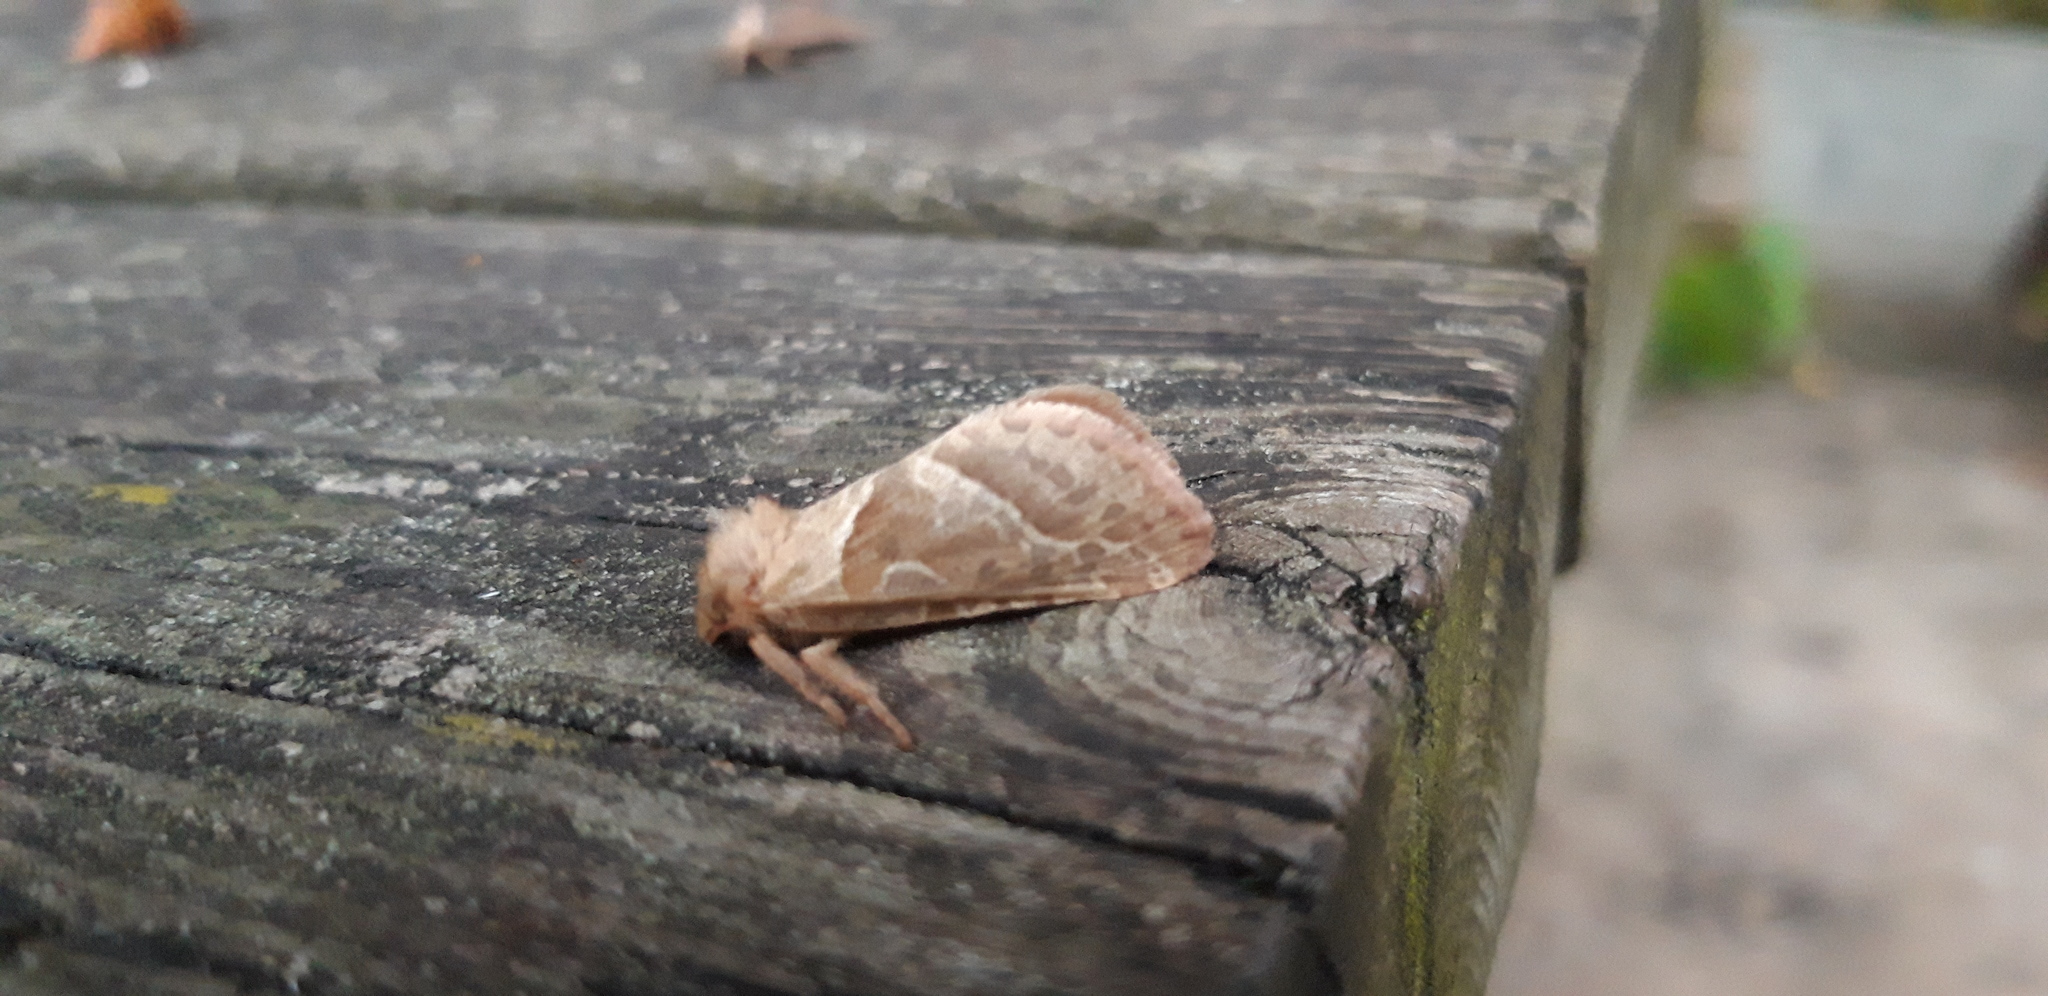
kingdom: Animalia
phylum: Arthropoda
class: Insecta
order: Lepidoptera
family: Hepialidae
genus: Triodia
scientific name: Triodia sylvina
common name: Orange swift
